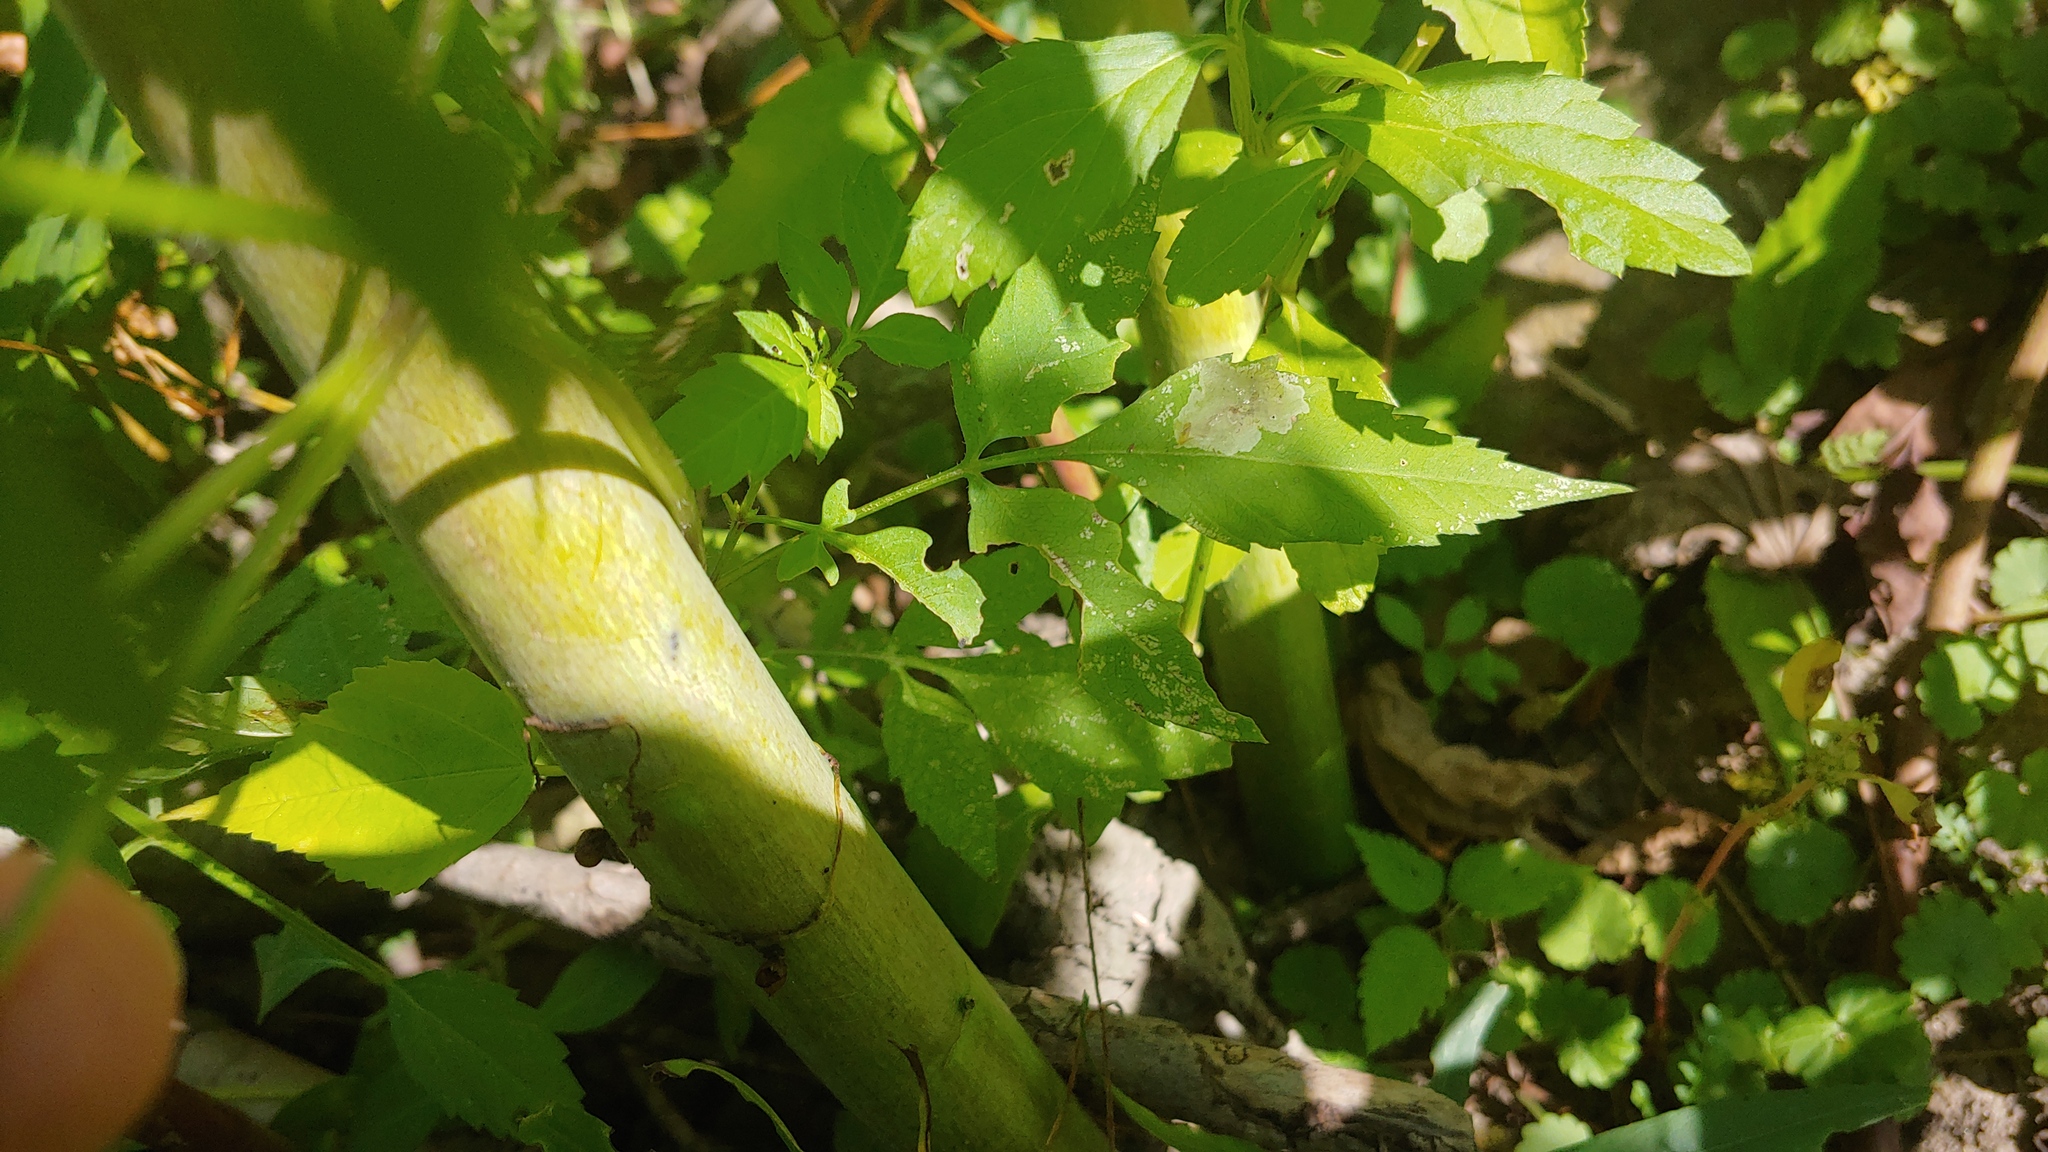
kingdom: Plantae
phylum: Tracheophyta
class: Magnoliopsida
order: Asterales
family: Asteraceae
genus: Bidens
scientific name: Bidens frondosa
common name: Beggarticks
